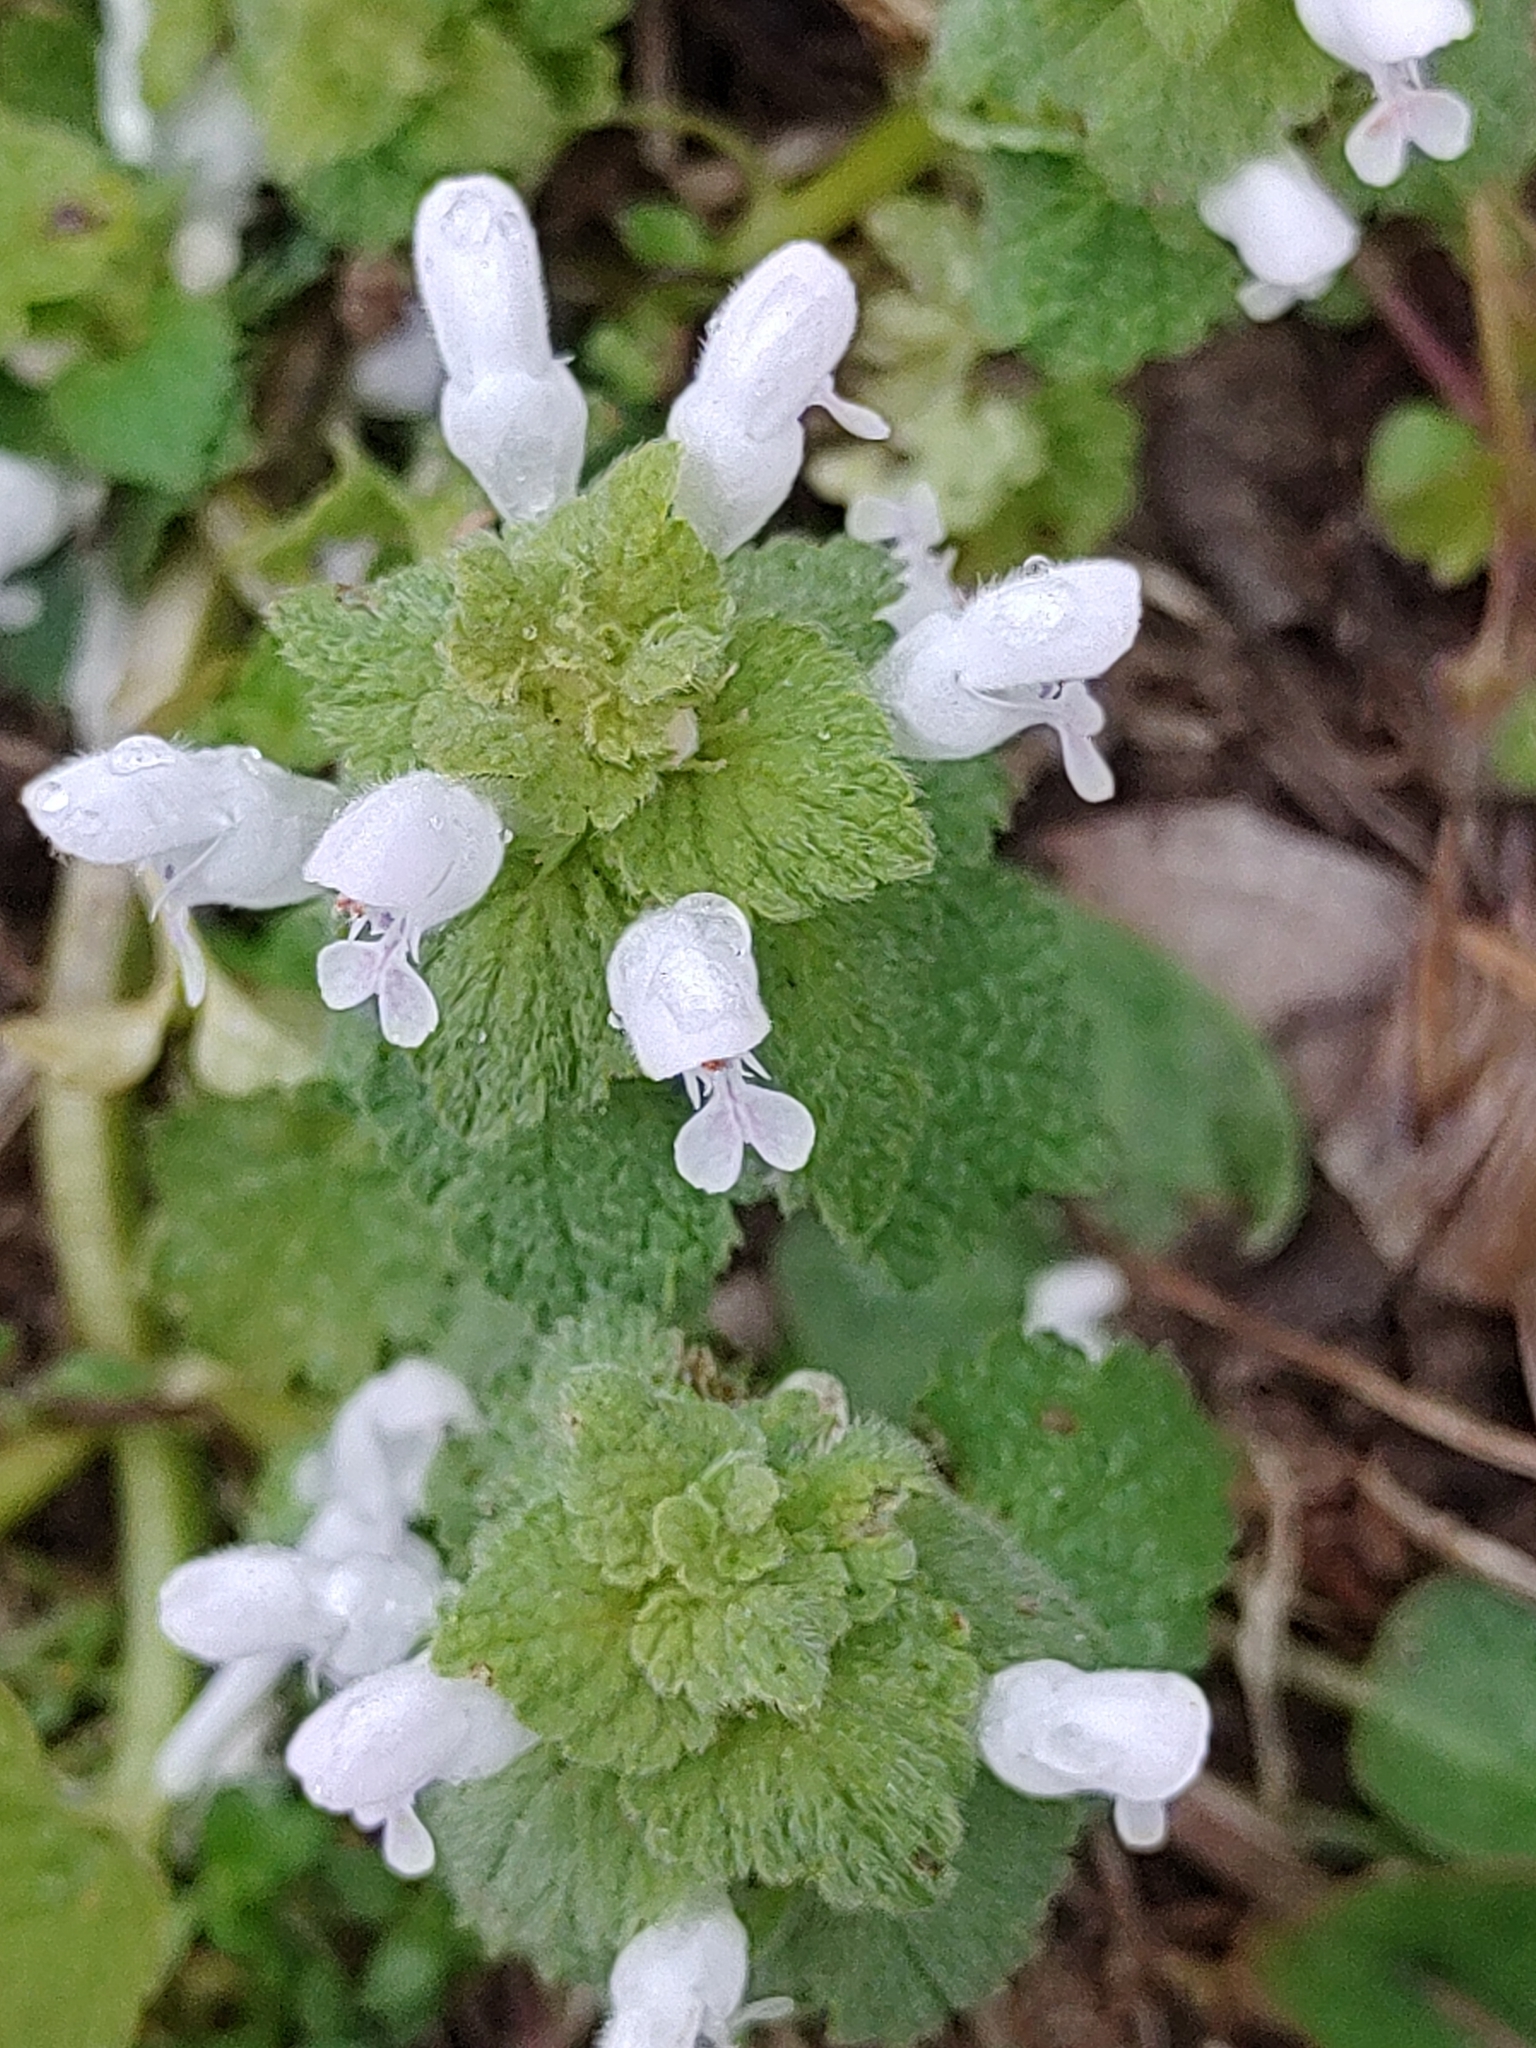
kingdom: Plantae
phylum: Tracheophyta
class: Magnoliopsida
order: Lamiales
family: Lamiaceae
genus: Lamium
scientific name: Lamium purpureum
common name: Red dead-nettle
